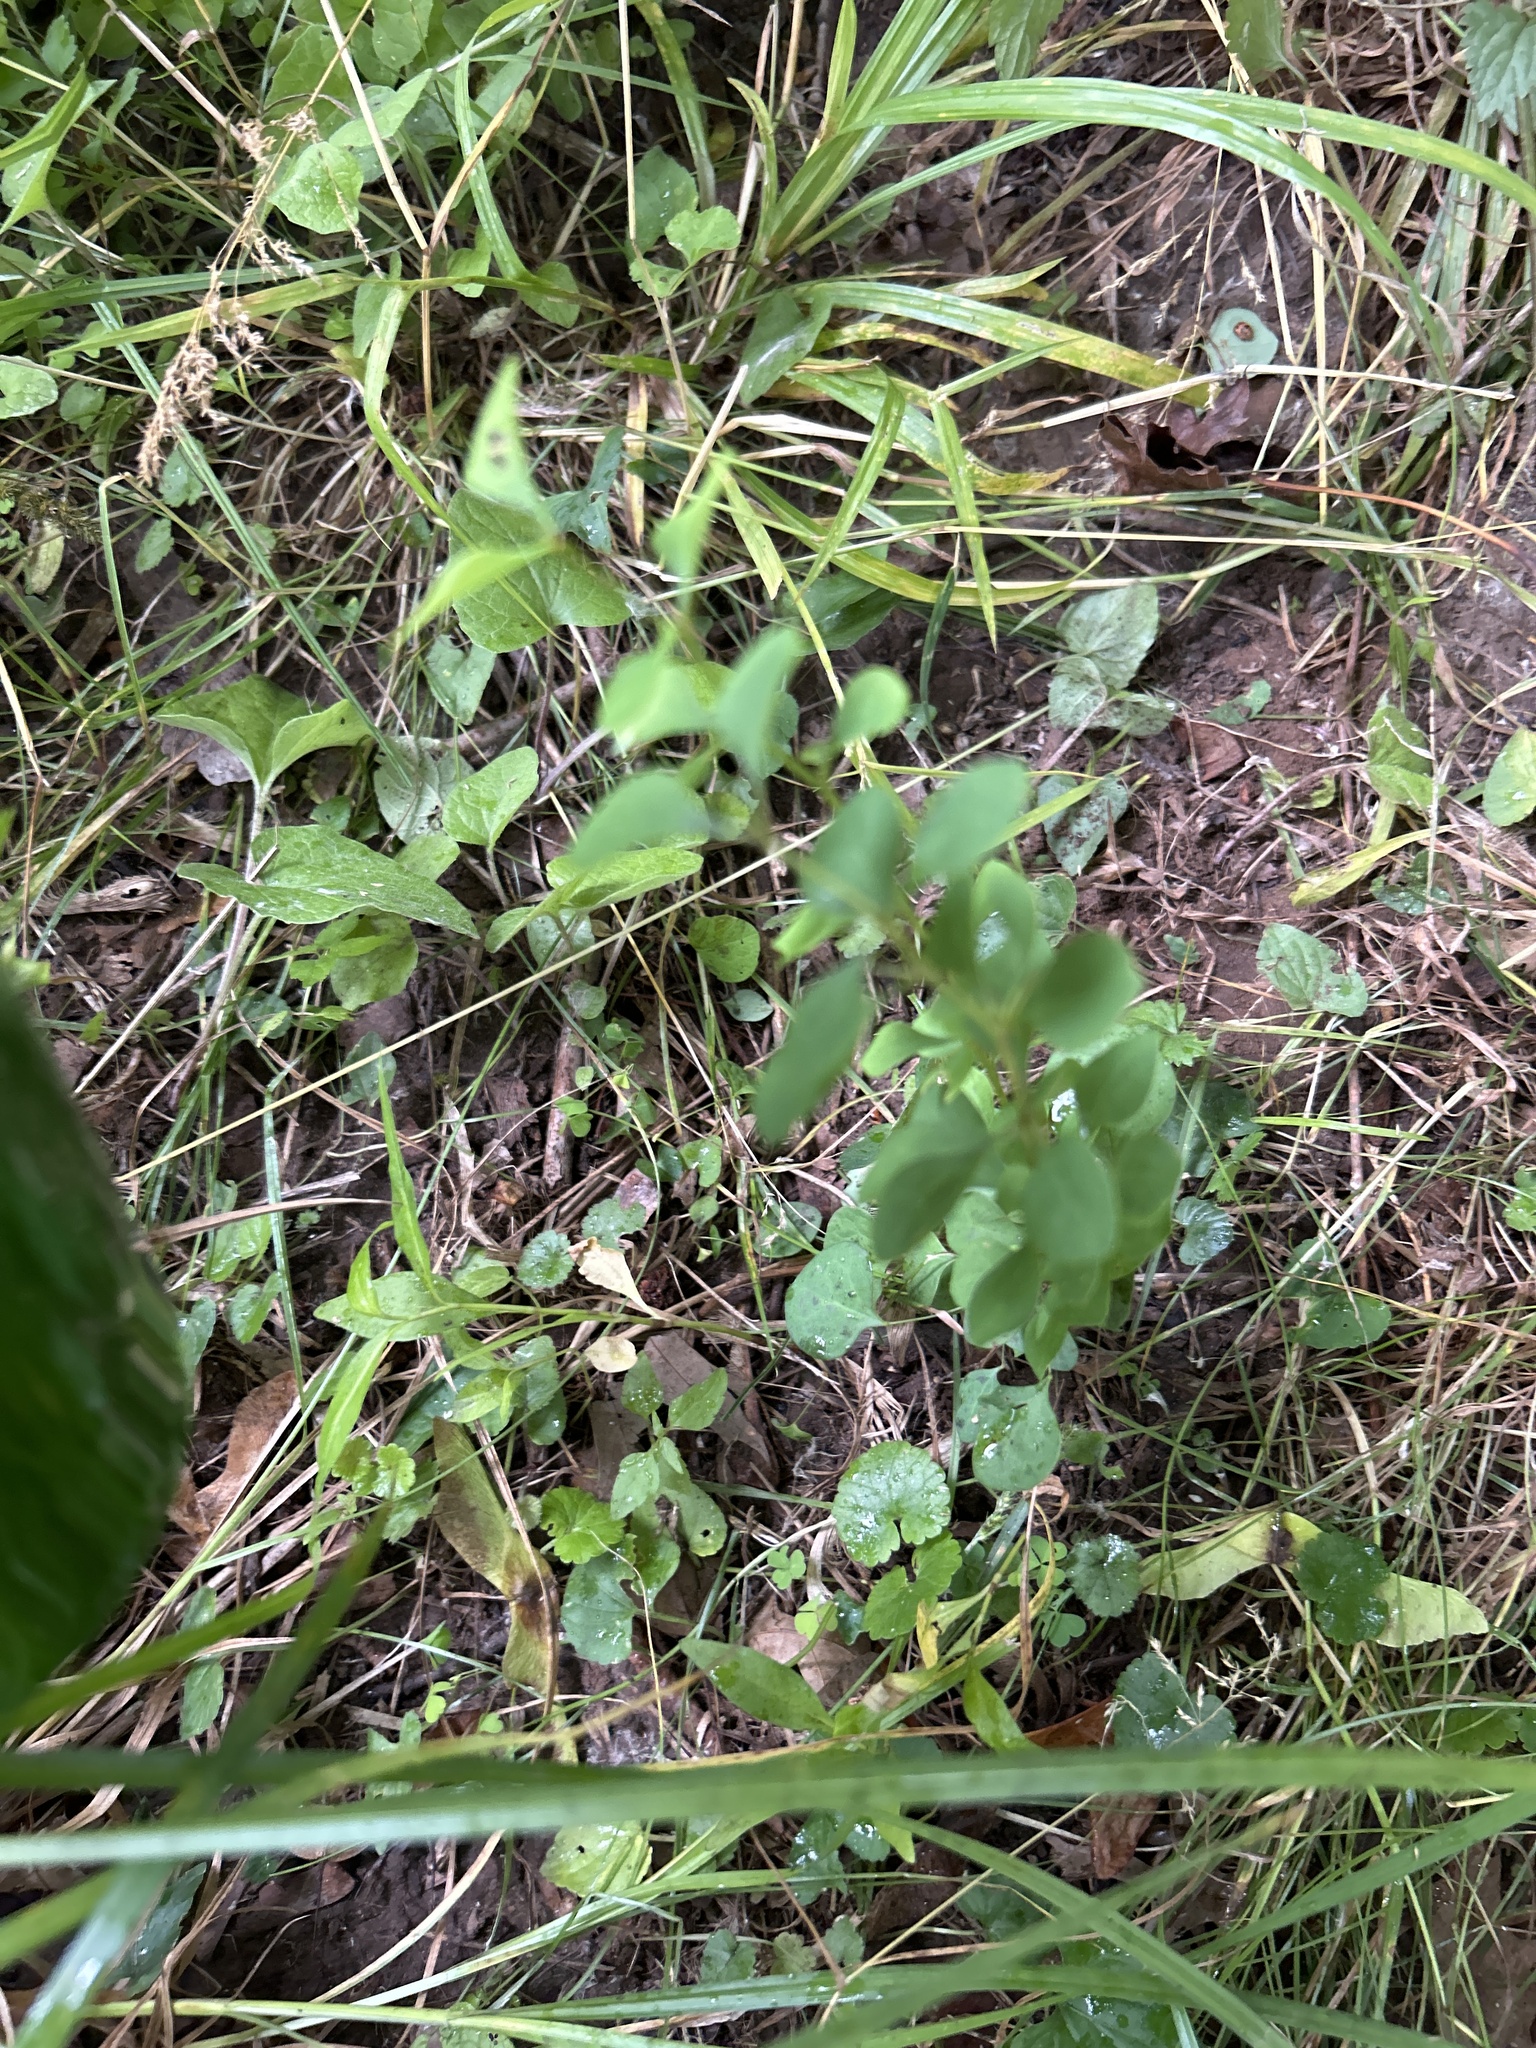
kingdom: Plantae
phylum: Tracheophyta
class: Magnoliopsida
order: Ranunculales
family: Berberidaceae
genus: Berberis
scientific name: Berberis thunbergii
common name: Japanese barberry
